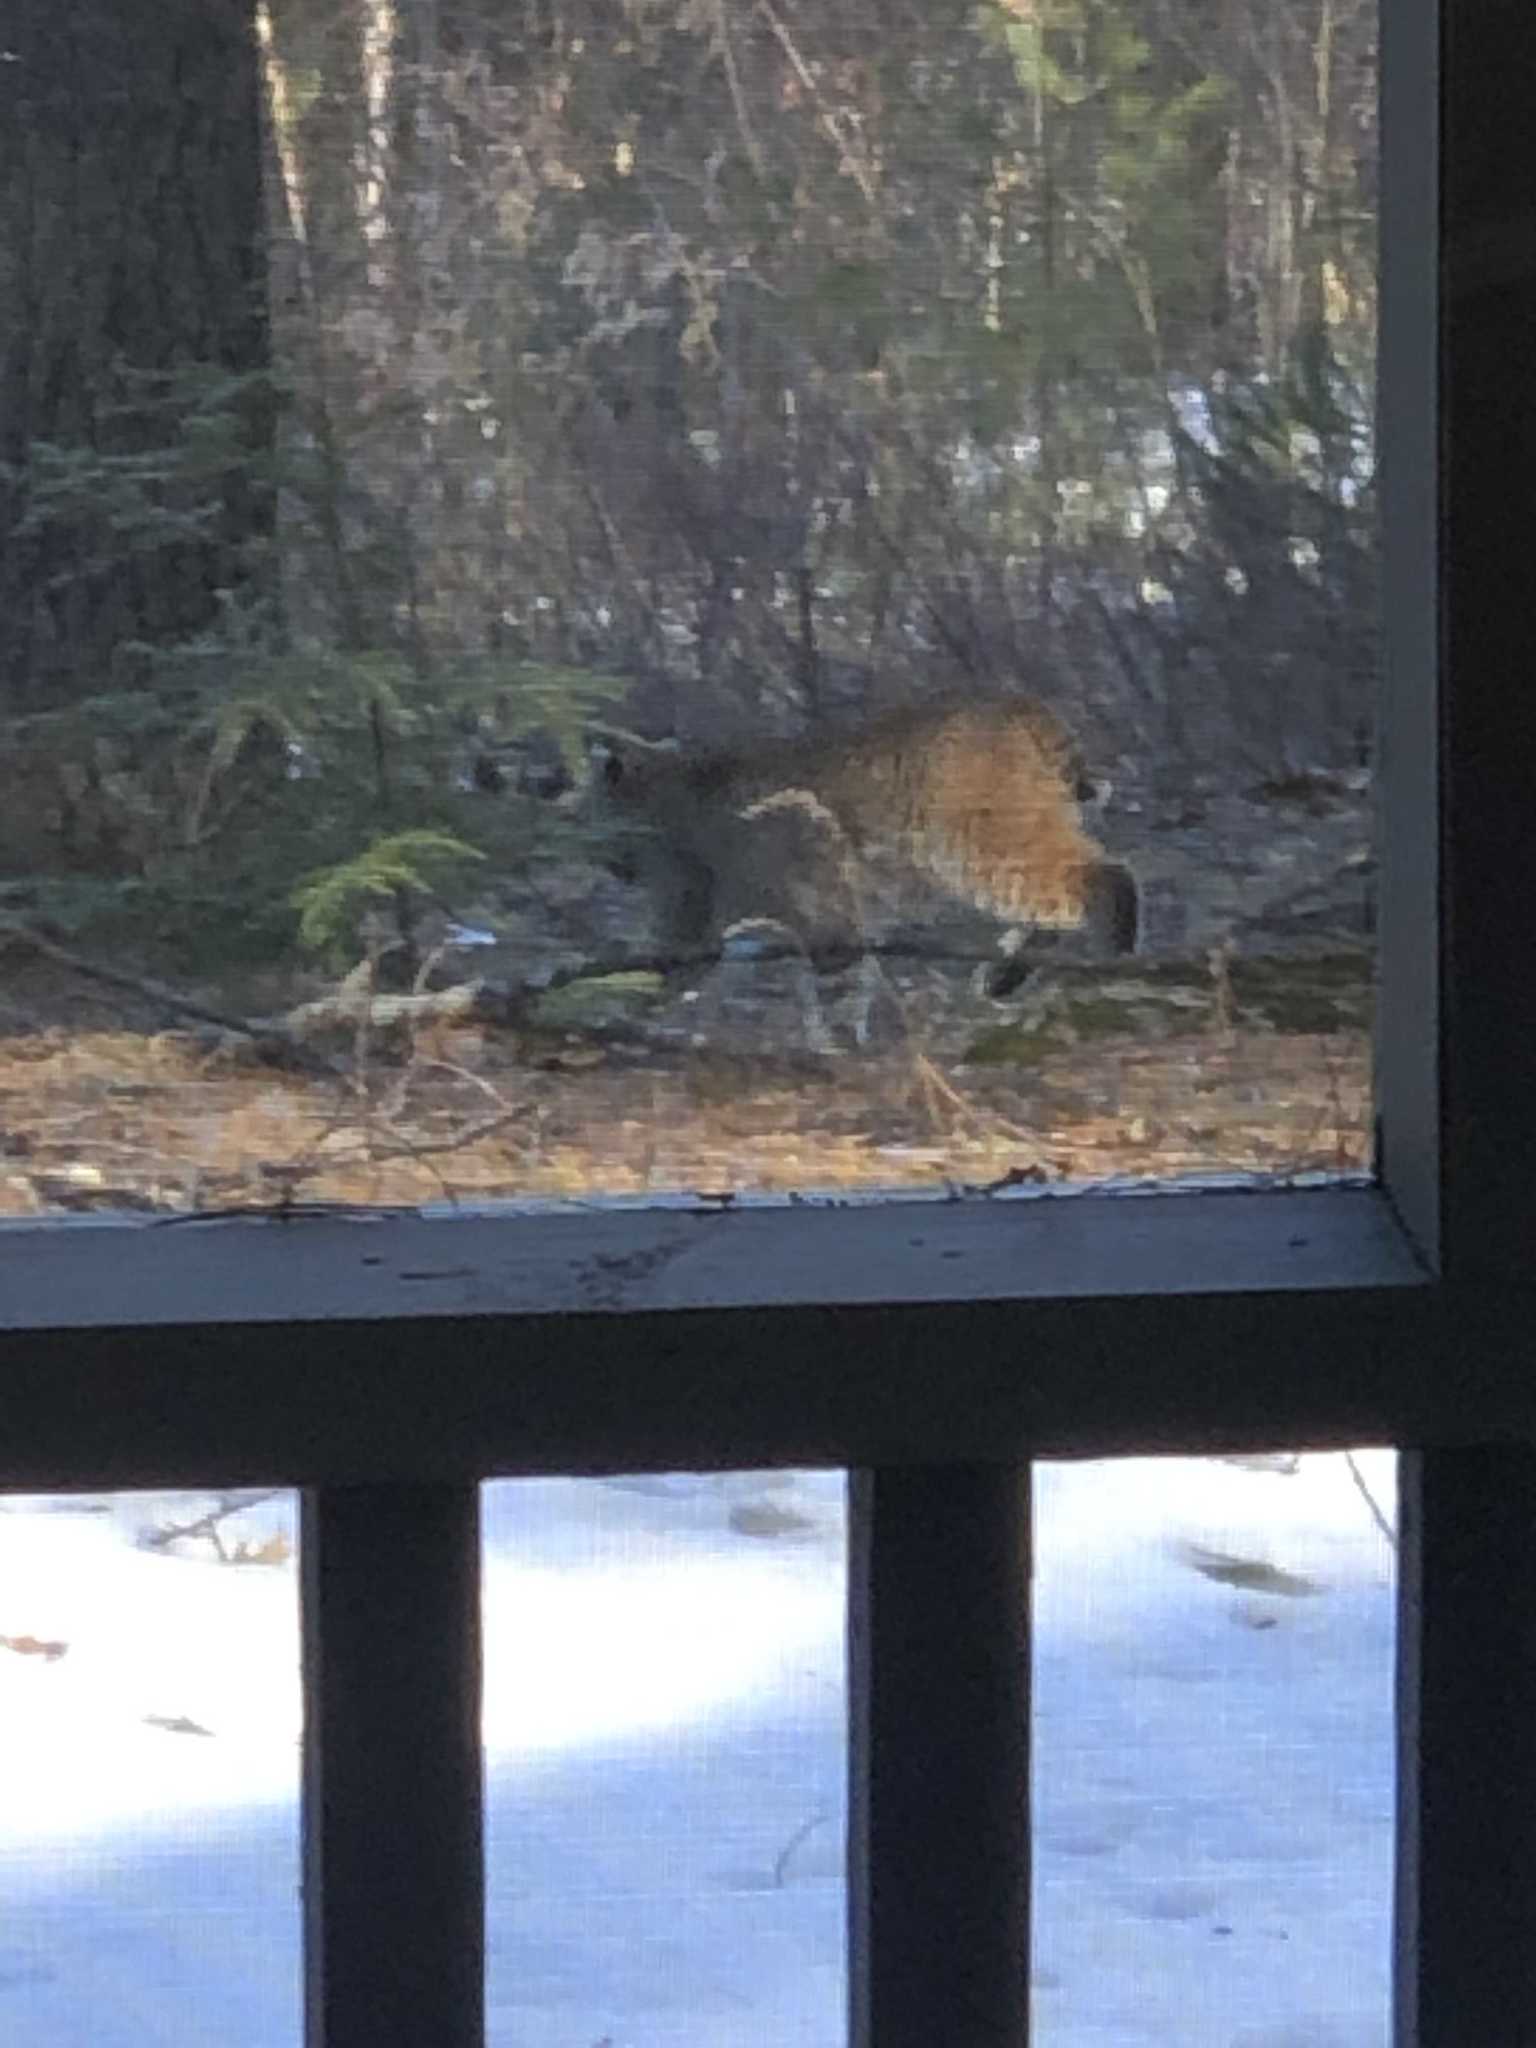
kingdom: Animalia
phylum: Chordata
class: Mammalia
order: Carnivora
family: Felidae
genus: Lynx
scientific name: Lynx rufus
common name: Bobcat
